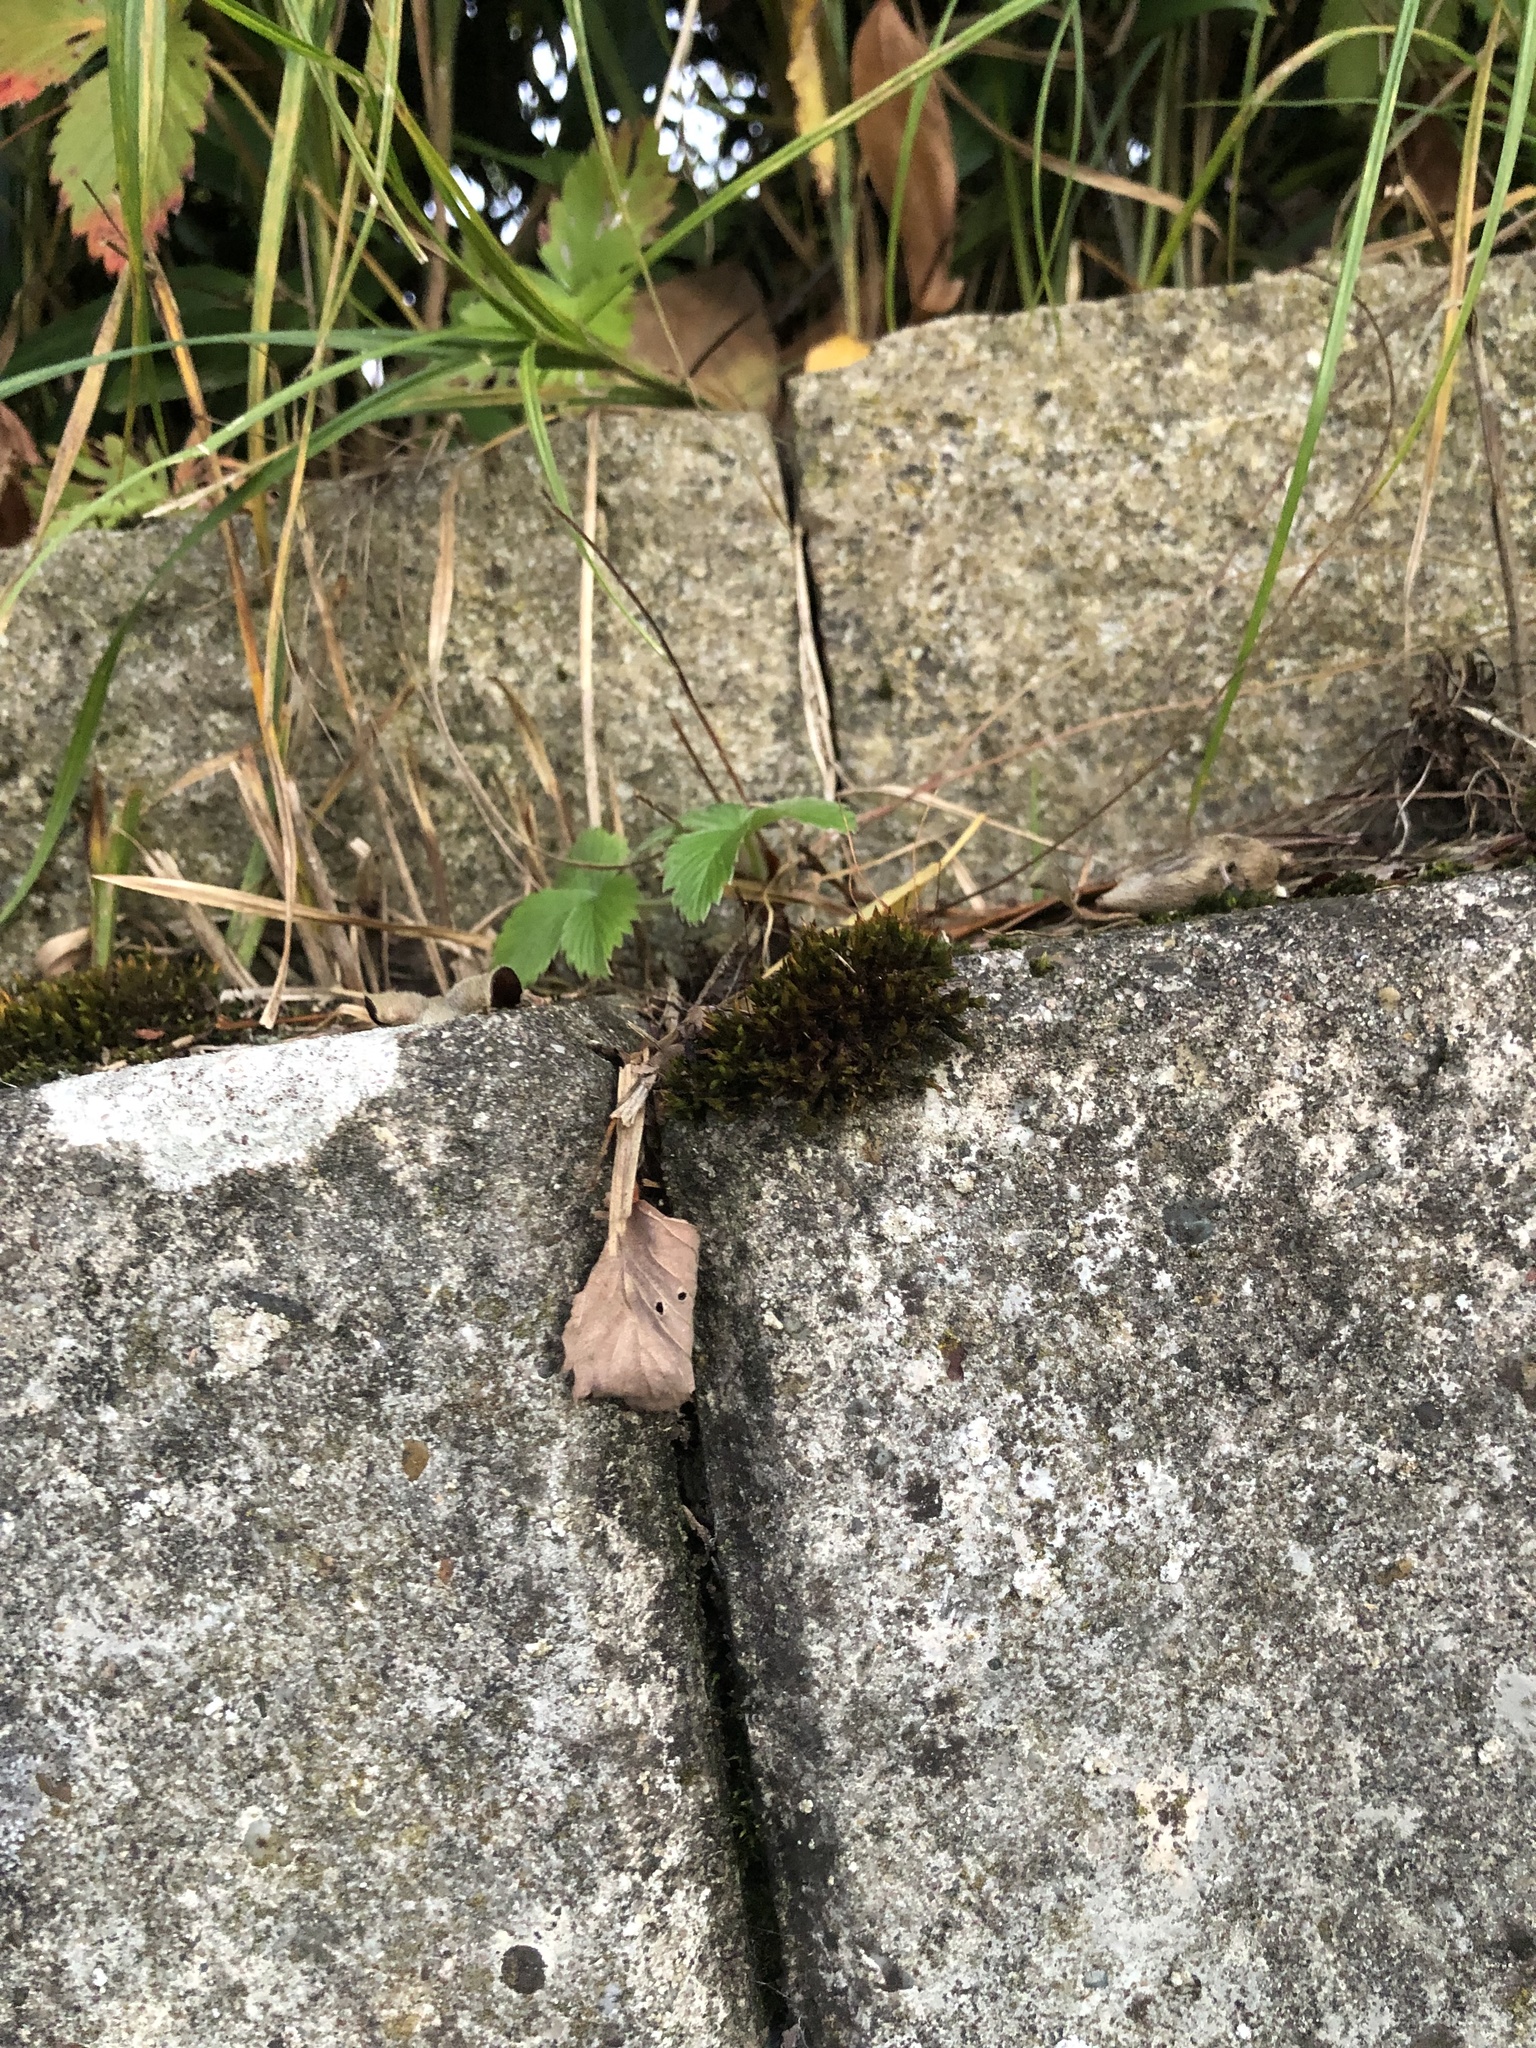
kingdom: Plantae
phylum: Bryophyta
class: Bryopsida
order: Orthotrichales
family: Orthotrichaceae
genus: Orthotrichum
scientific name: Orthotrichum anomalum
